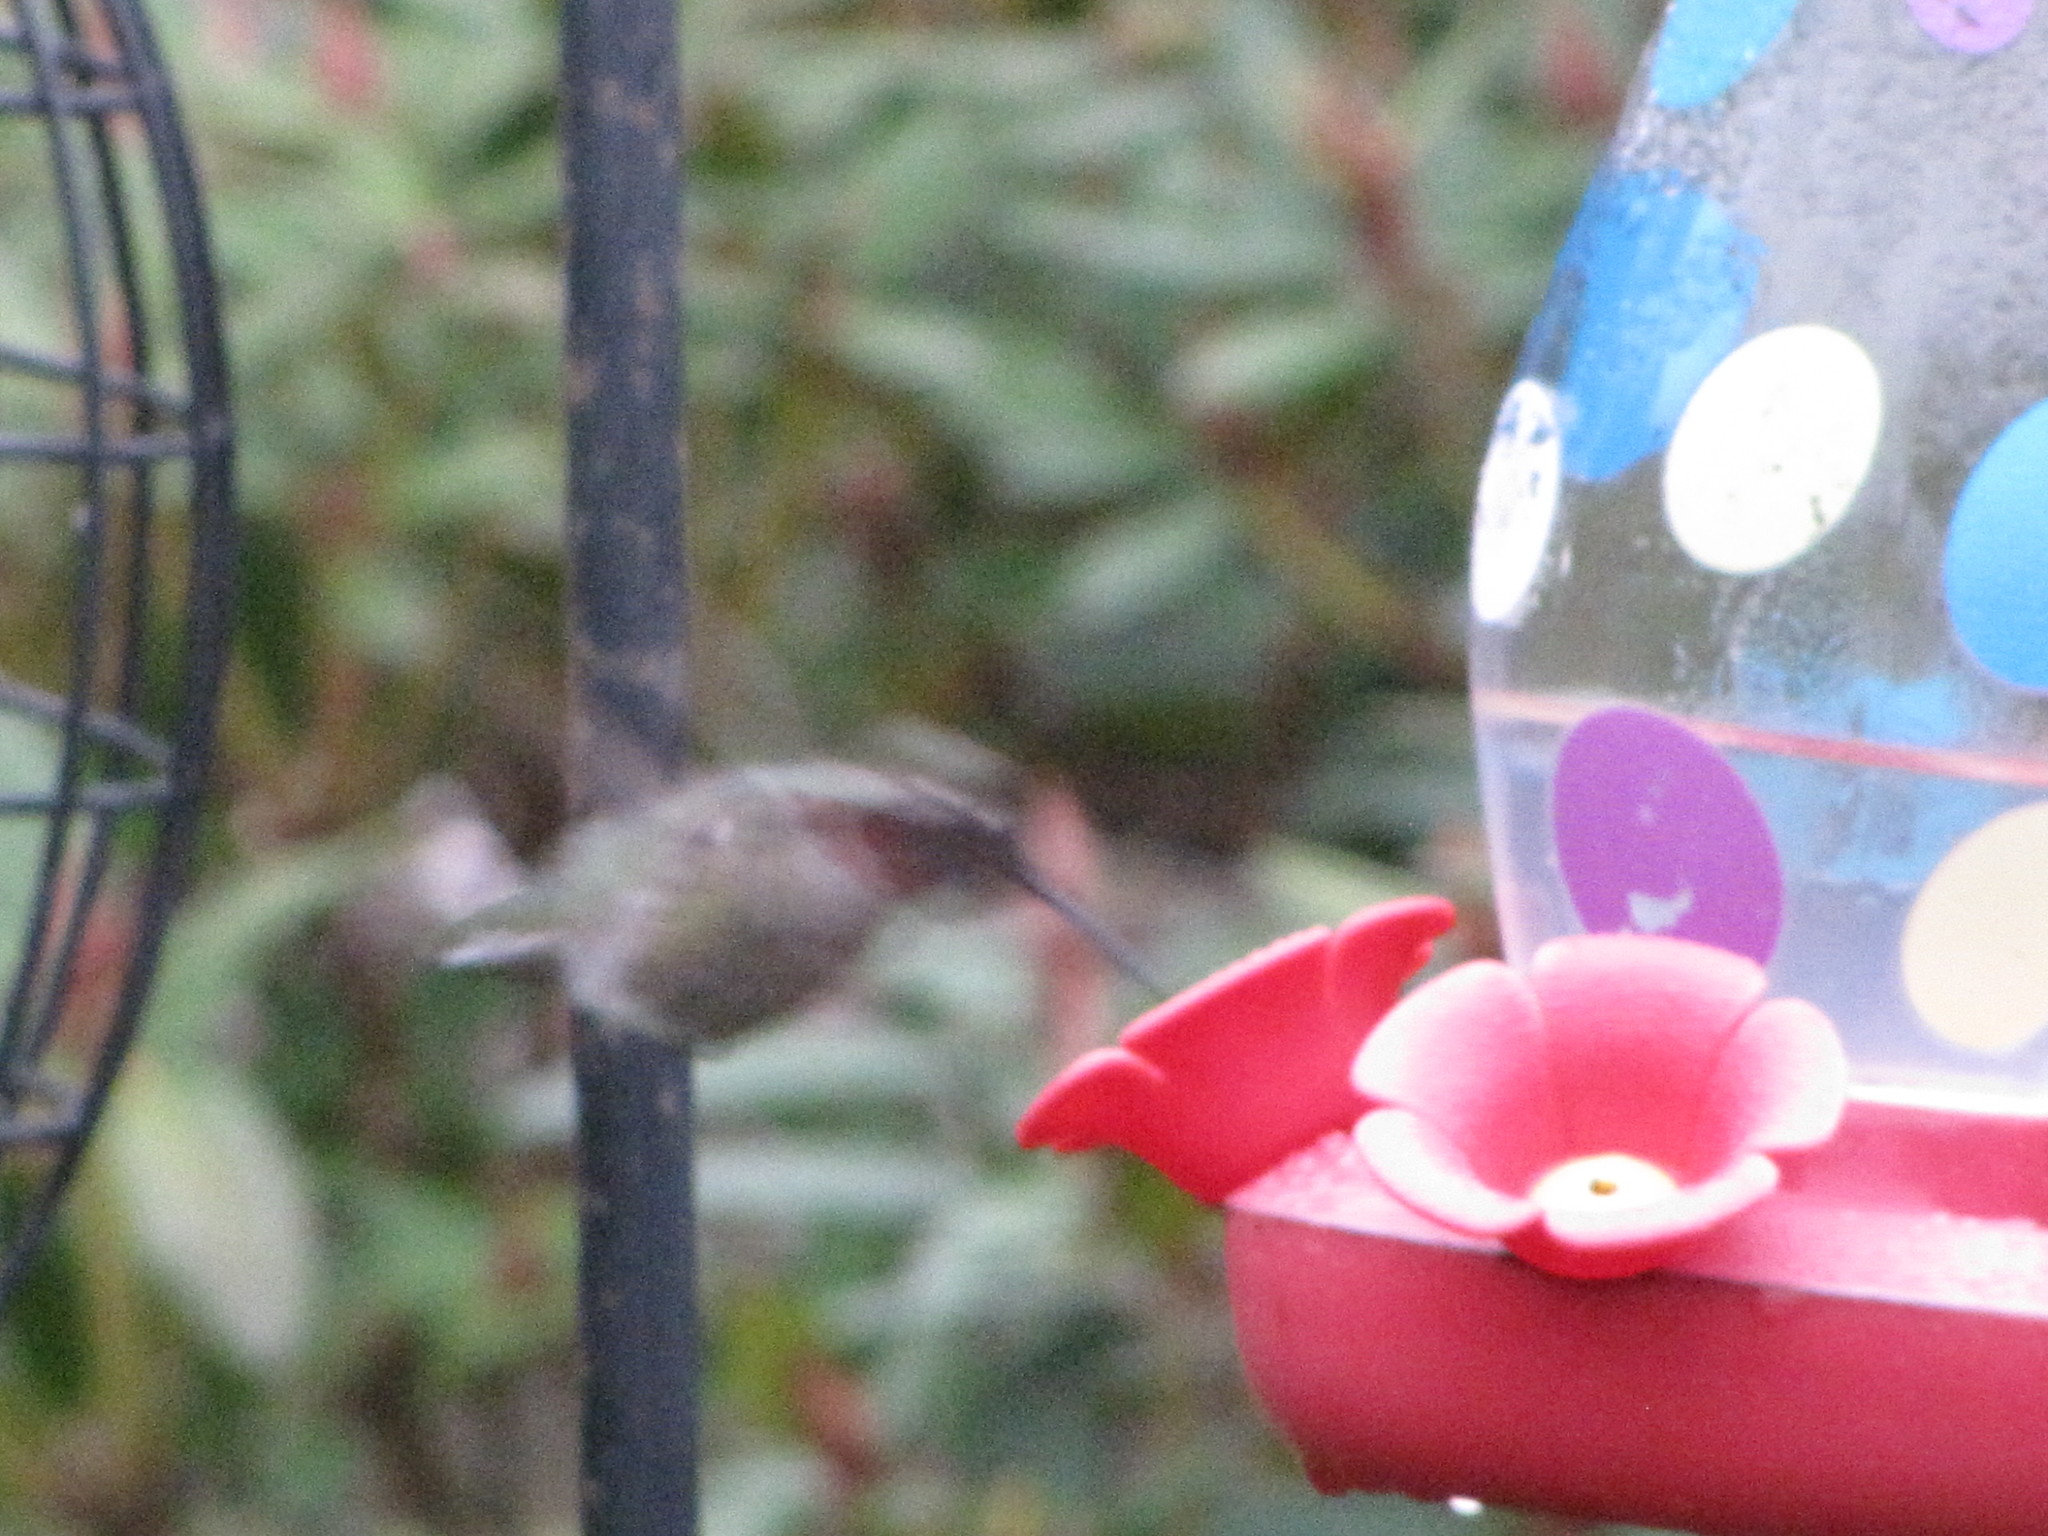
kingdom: Animalia
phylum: Chordata
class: Aves
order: Apodiformes
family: Trochilidae
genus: Calypte
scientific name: Calypte anna
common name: Anna's hummingbird
